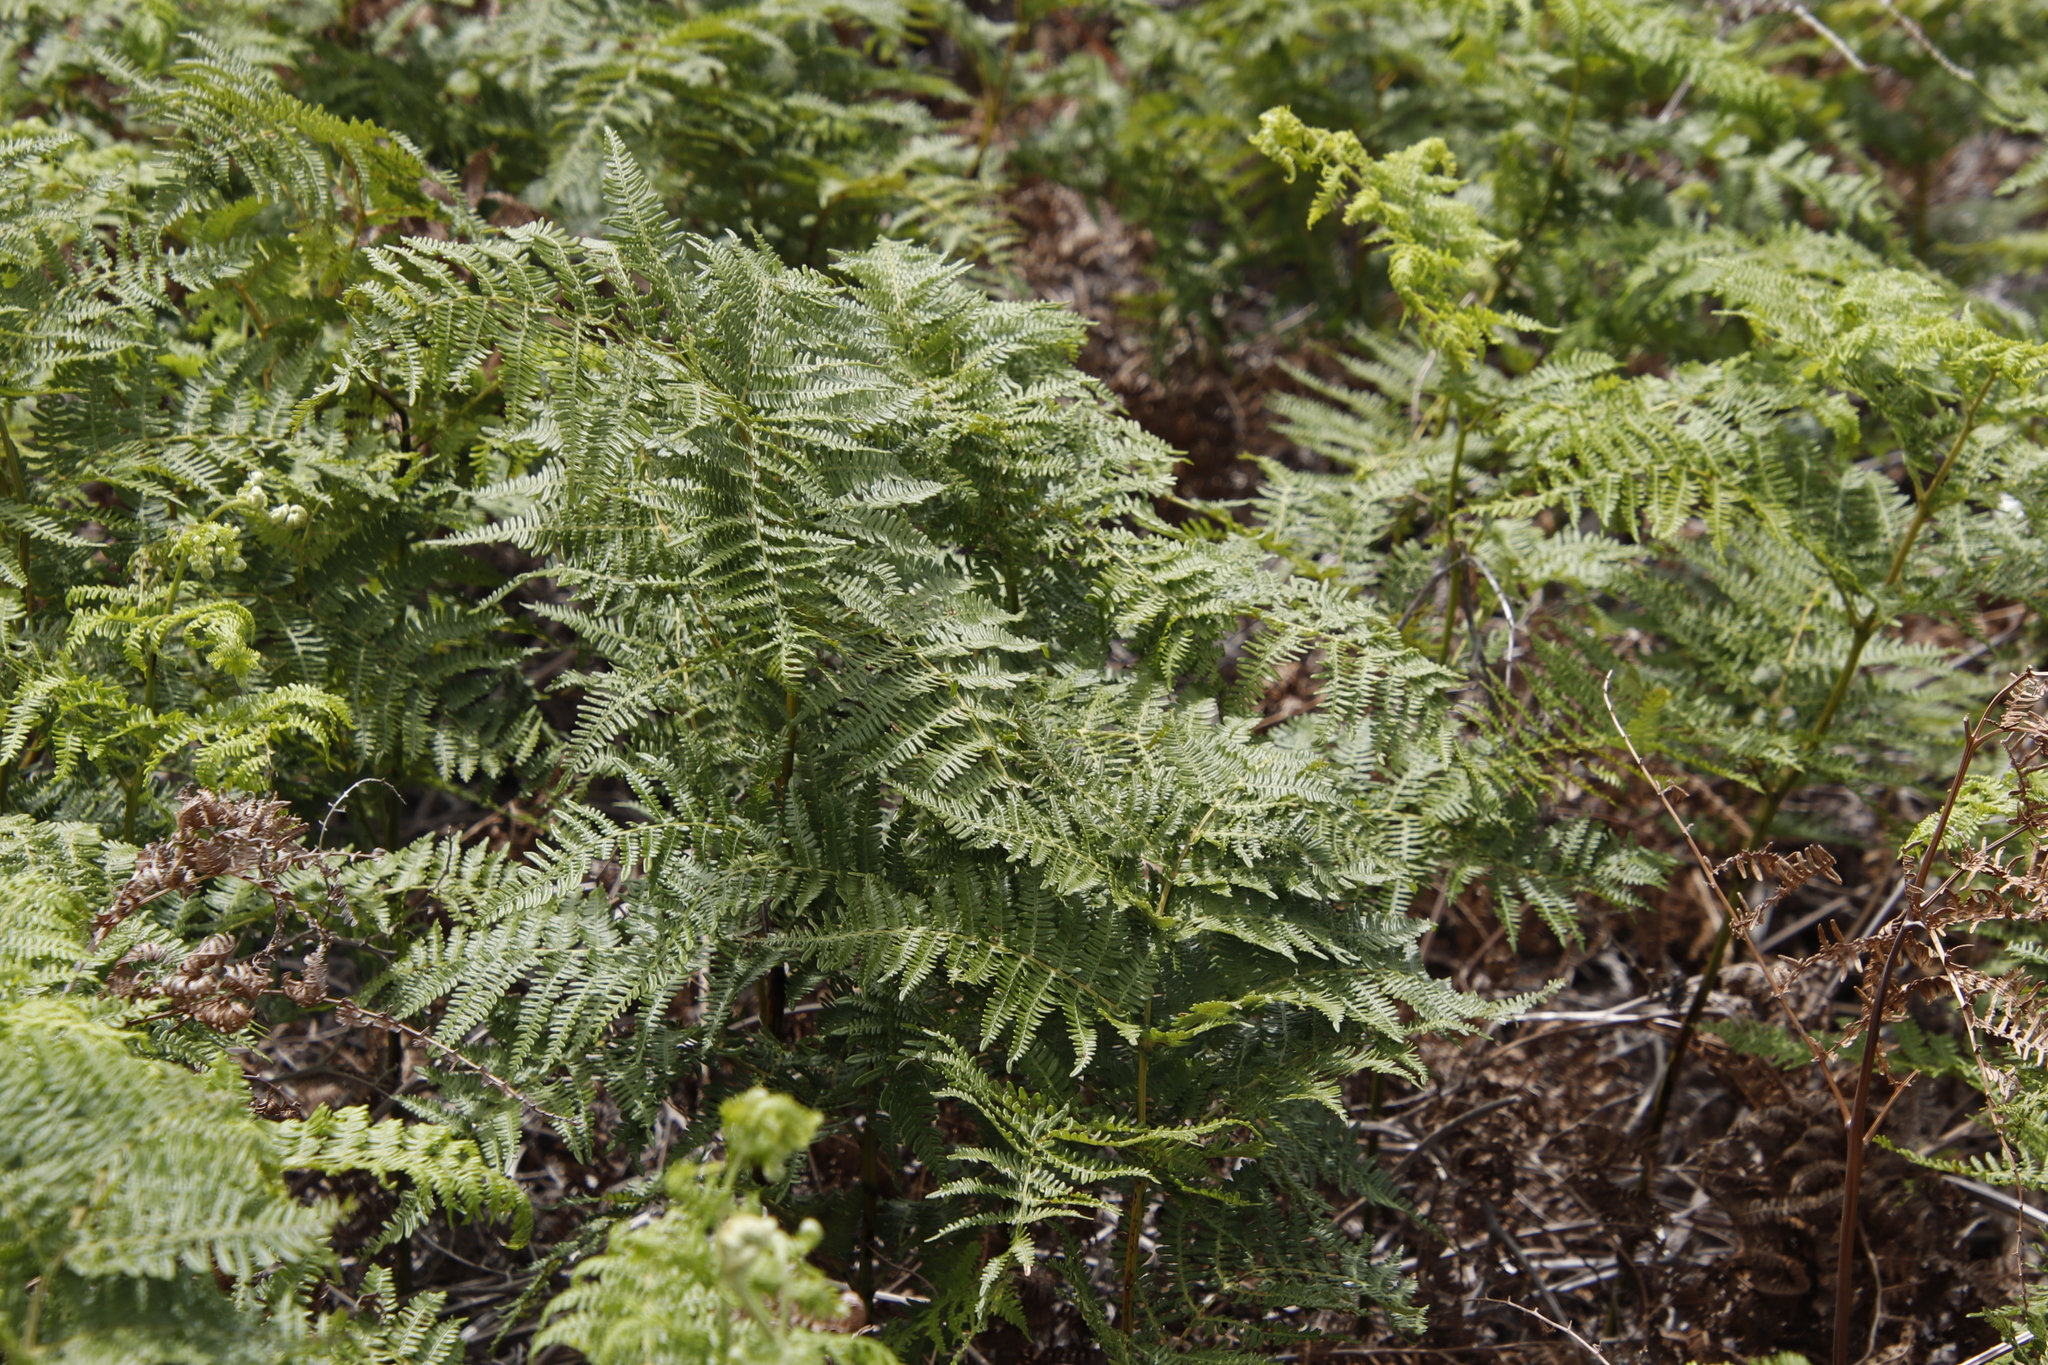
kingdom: Plantae
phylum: Tracheophyta
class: Polypodiopsida
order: Polypodiales
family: Dennstaedtiaceae
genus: Pteridium
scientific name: Pteridium aquilinum
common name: Bracken
